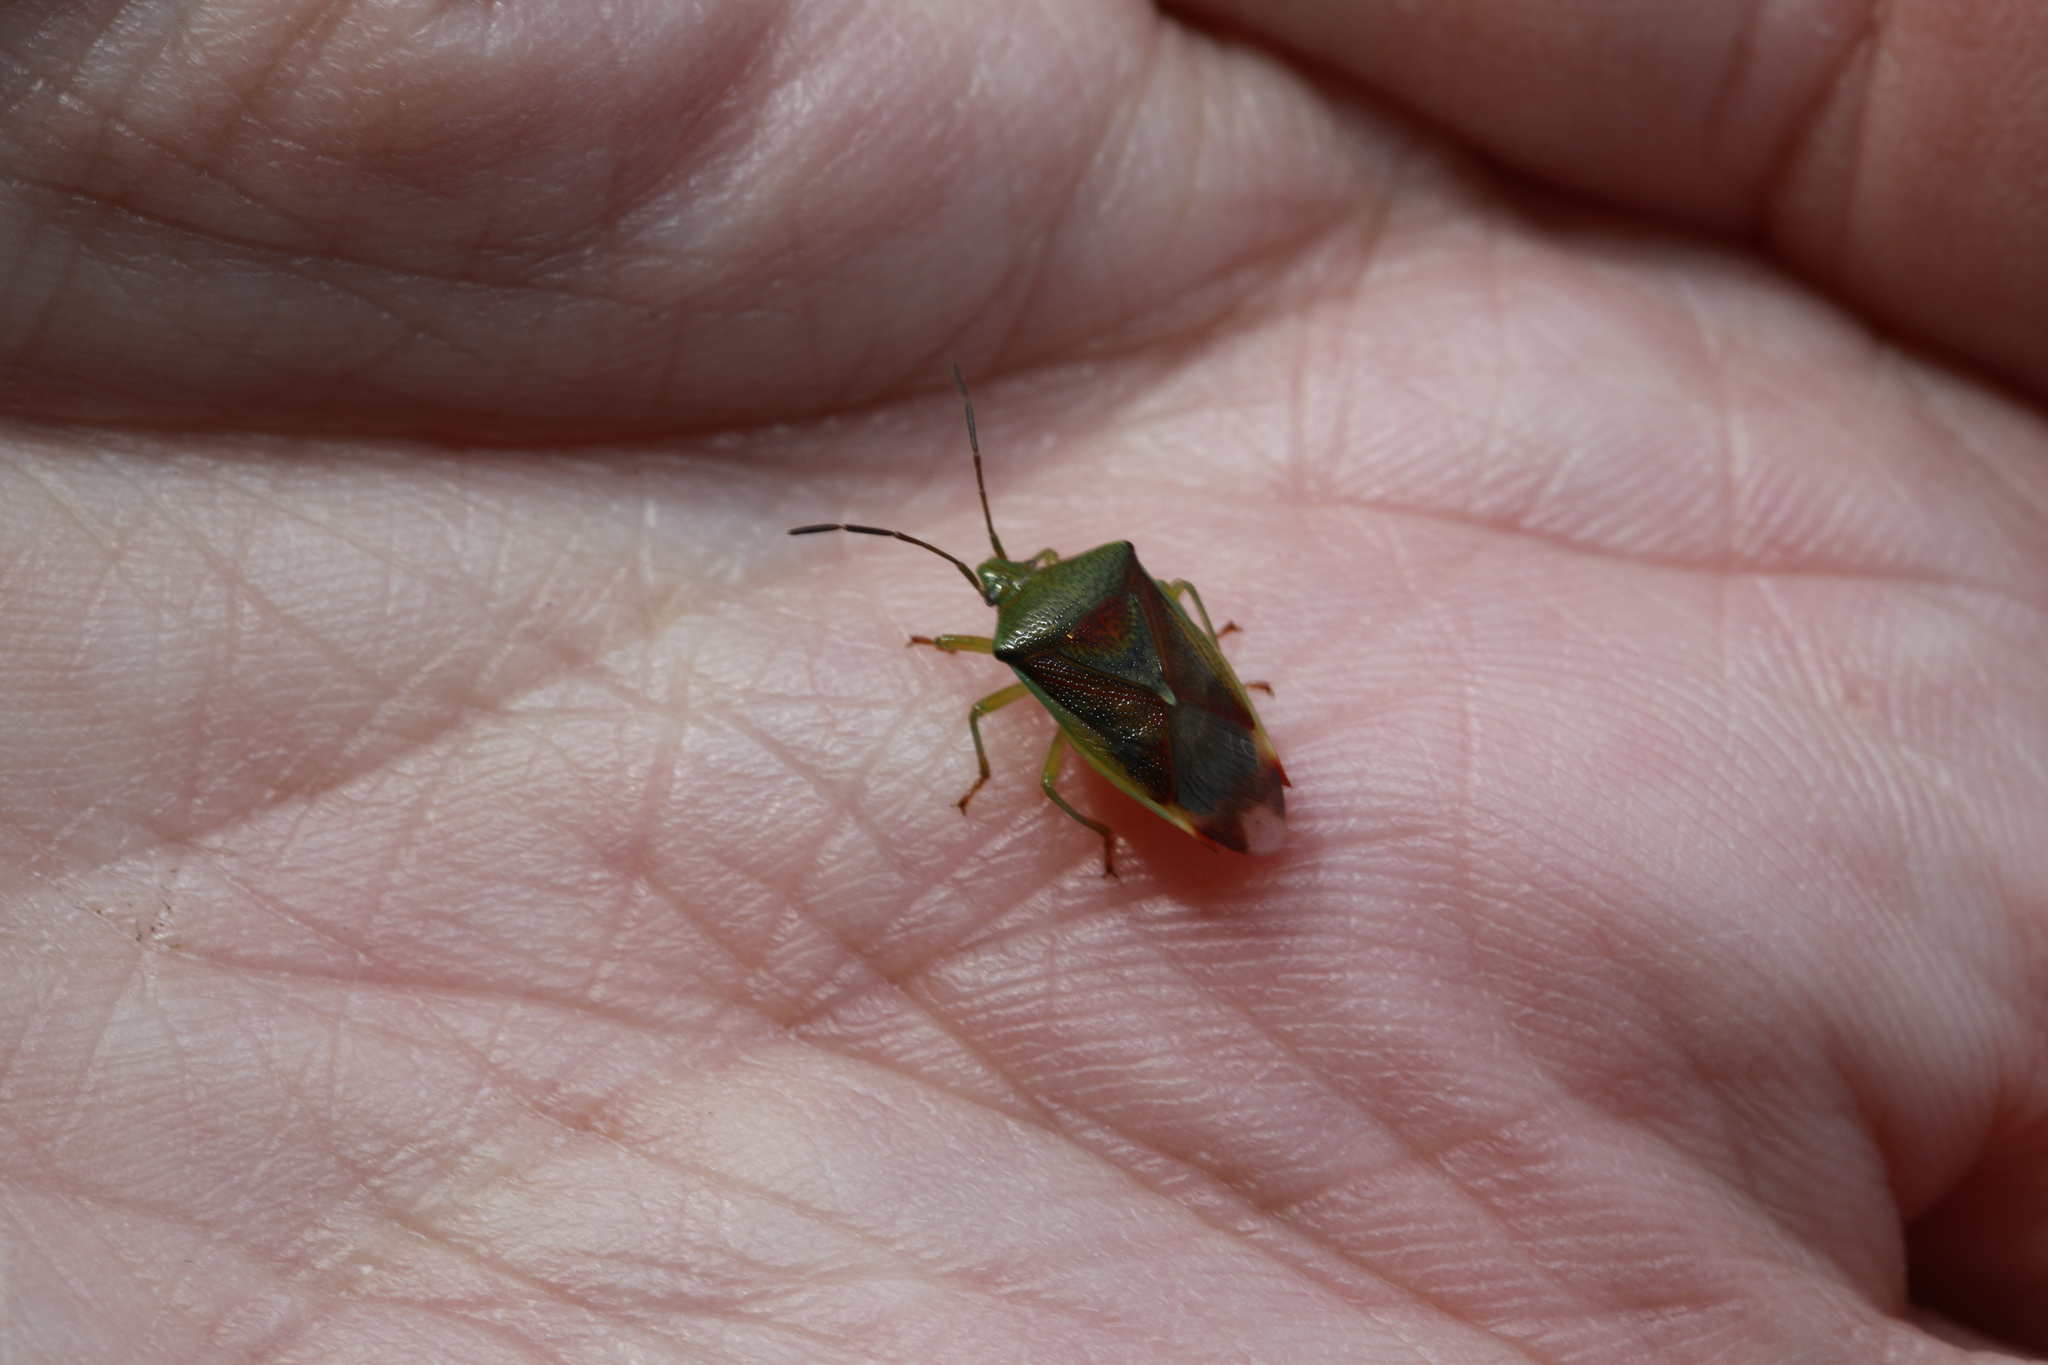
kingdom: Animalia
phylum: Arthropoda
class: Insecta
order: Hemiptera
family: Acanthosomatidae
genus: Elasmostethus
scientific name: Elasmostethus interstinctus
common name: Birch shieldbug
